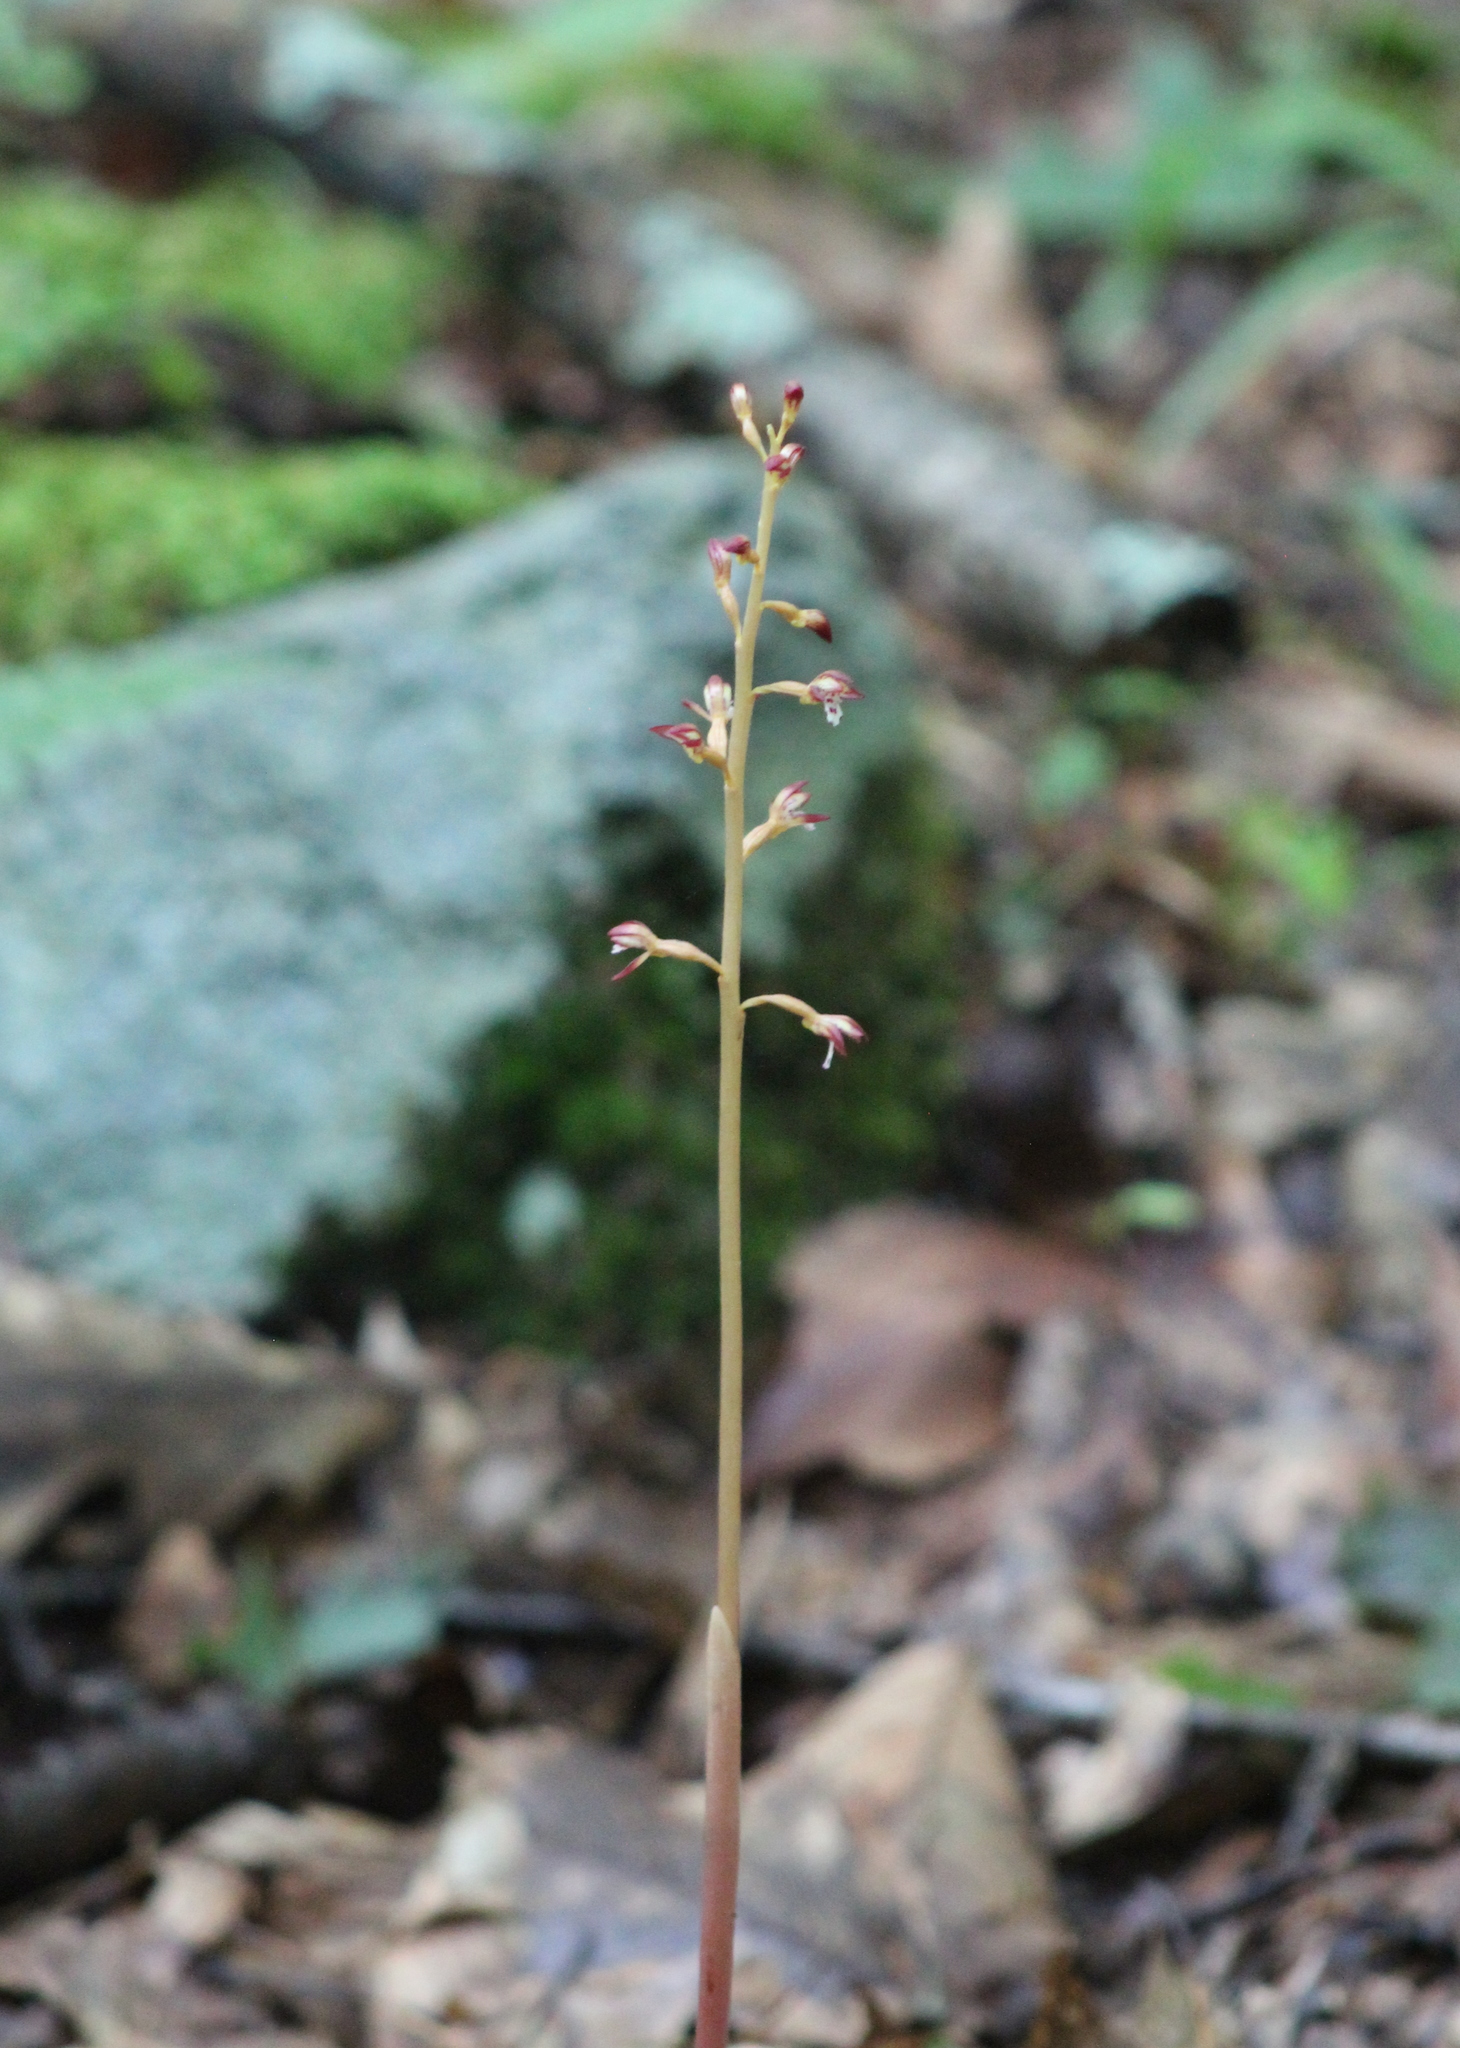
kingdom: Plantae
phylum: Tracheophyta
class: Liliopsida
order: Asparagales
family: Orchidaceae
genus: Corallorhiza
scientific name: Corallorhiza maculata
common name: Spotted coralroot
